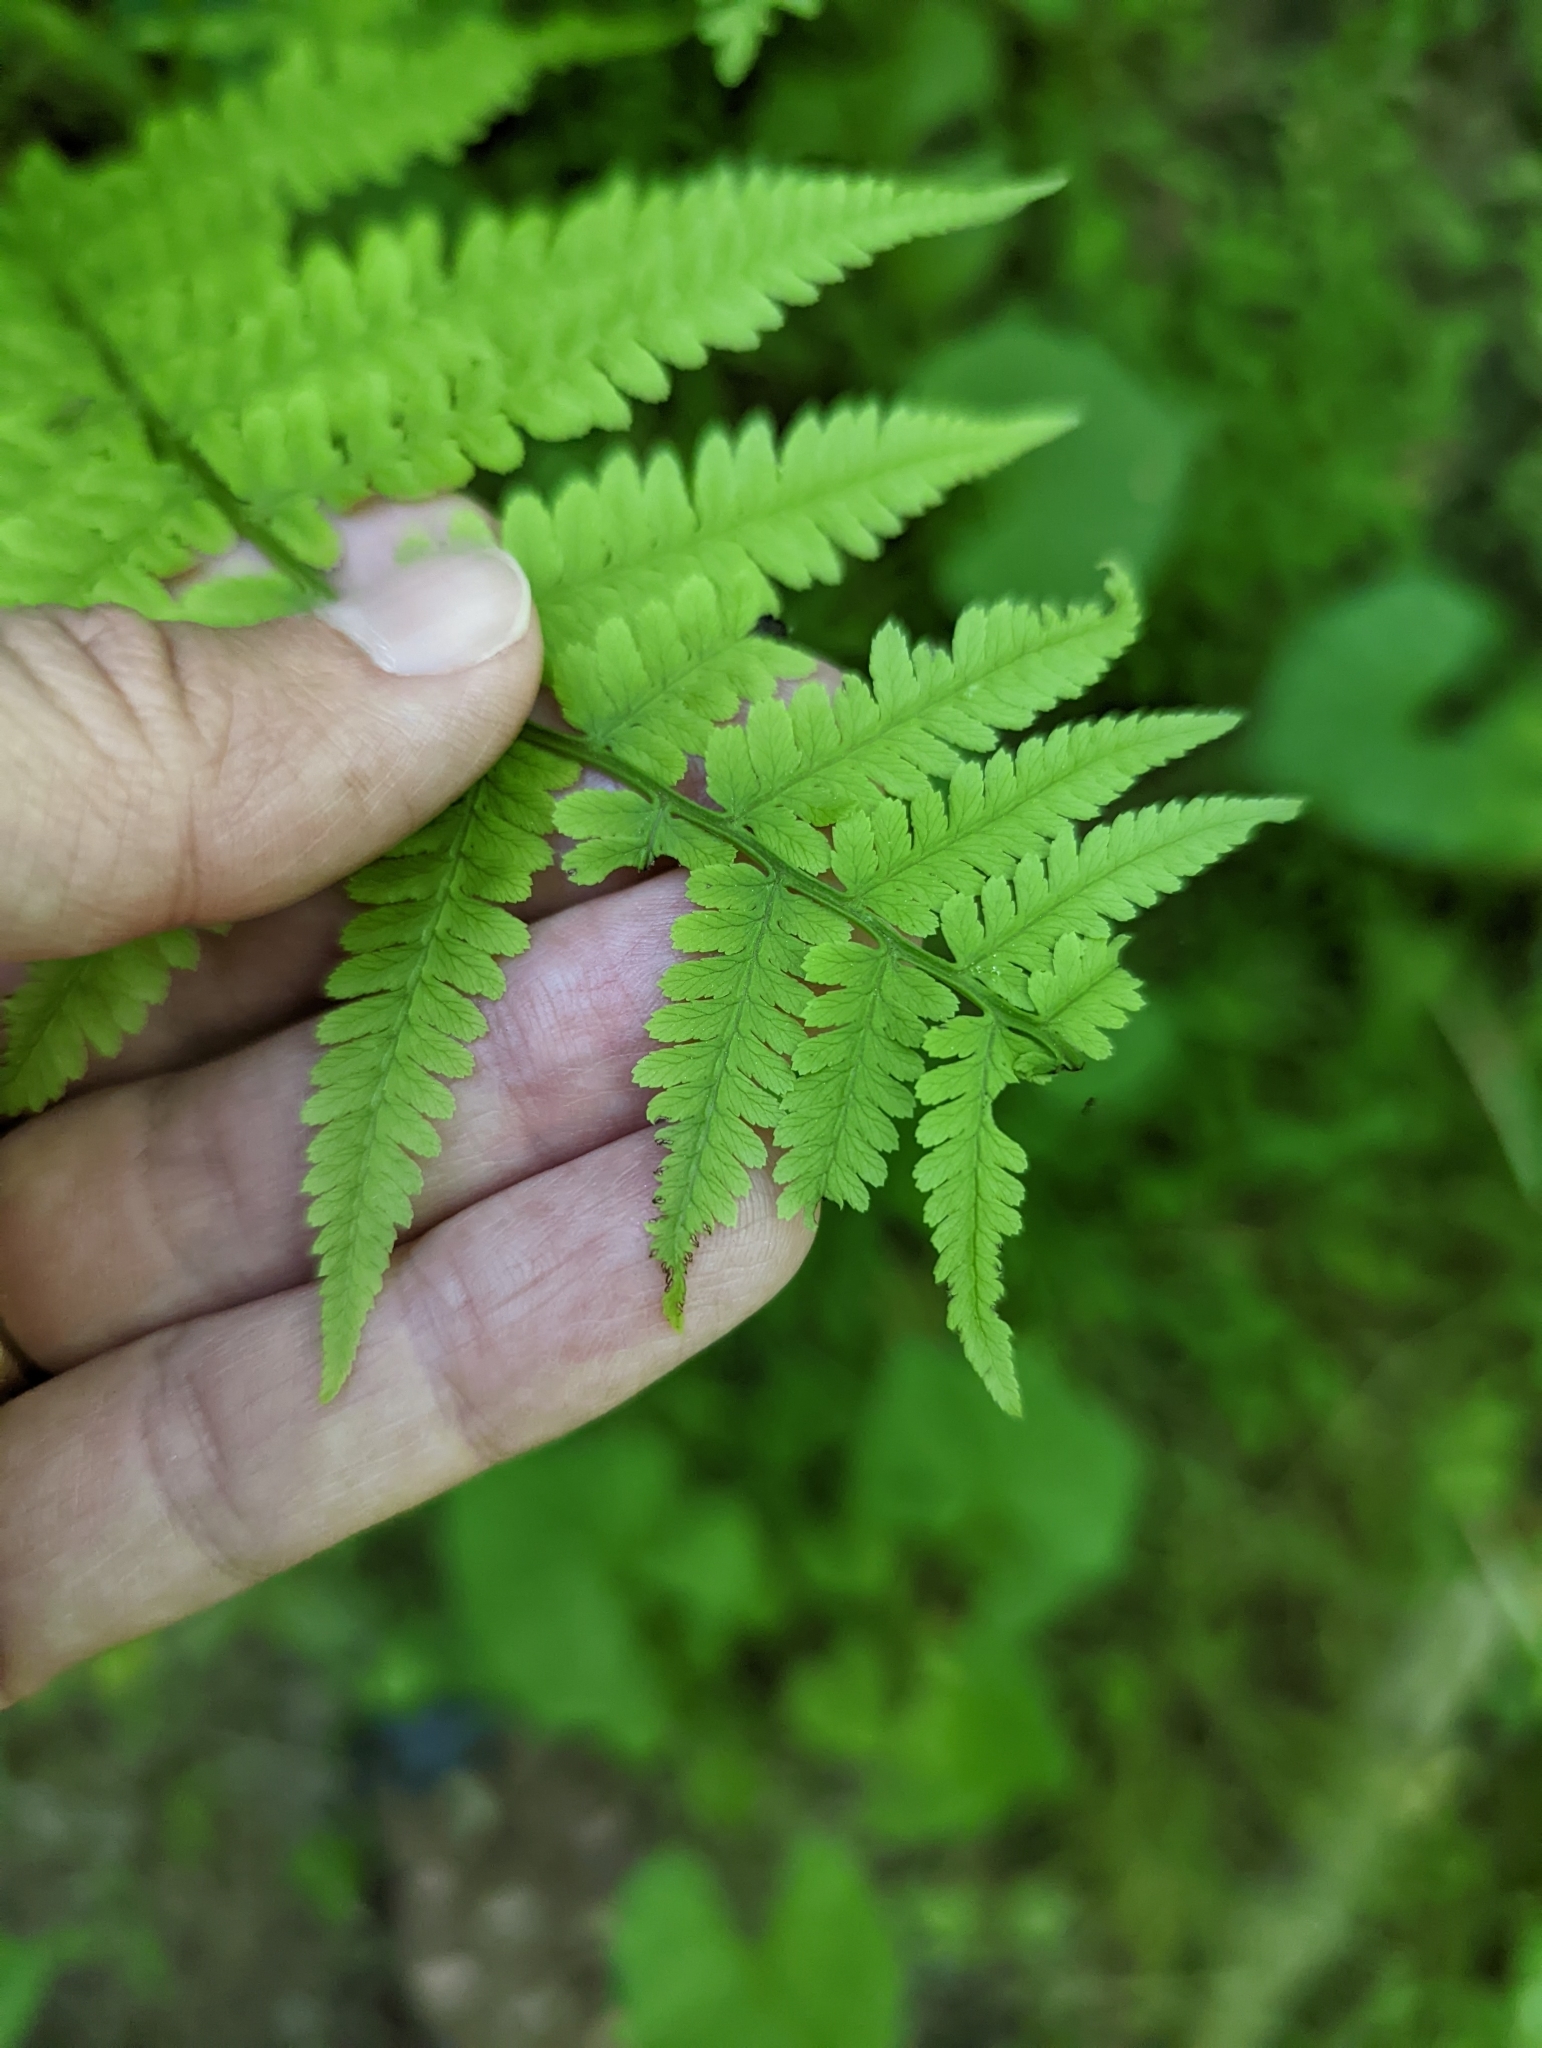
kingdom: Plantae
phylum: Tracheophyta
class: Polypodiopsida
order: Polypodiales
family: Athyriaceae
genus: Athyrium
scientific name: Athyrium asplenioides
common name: Southern lady fern
